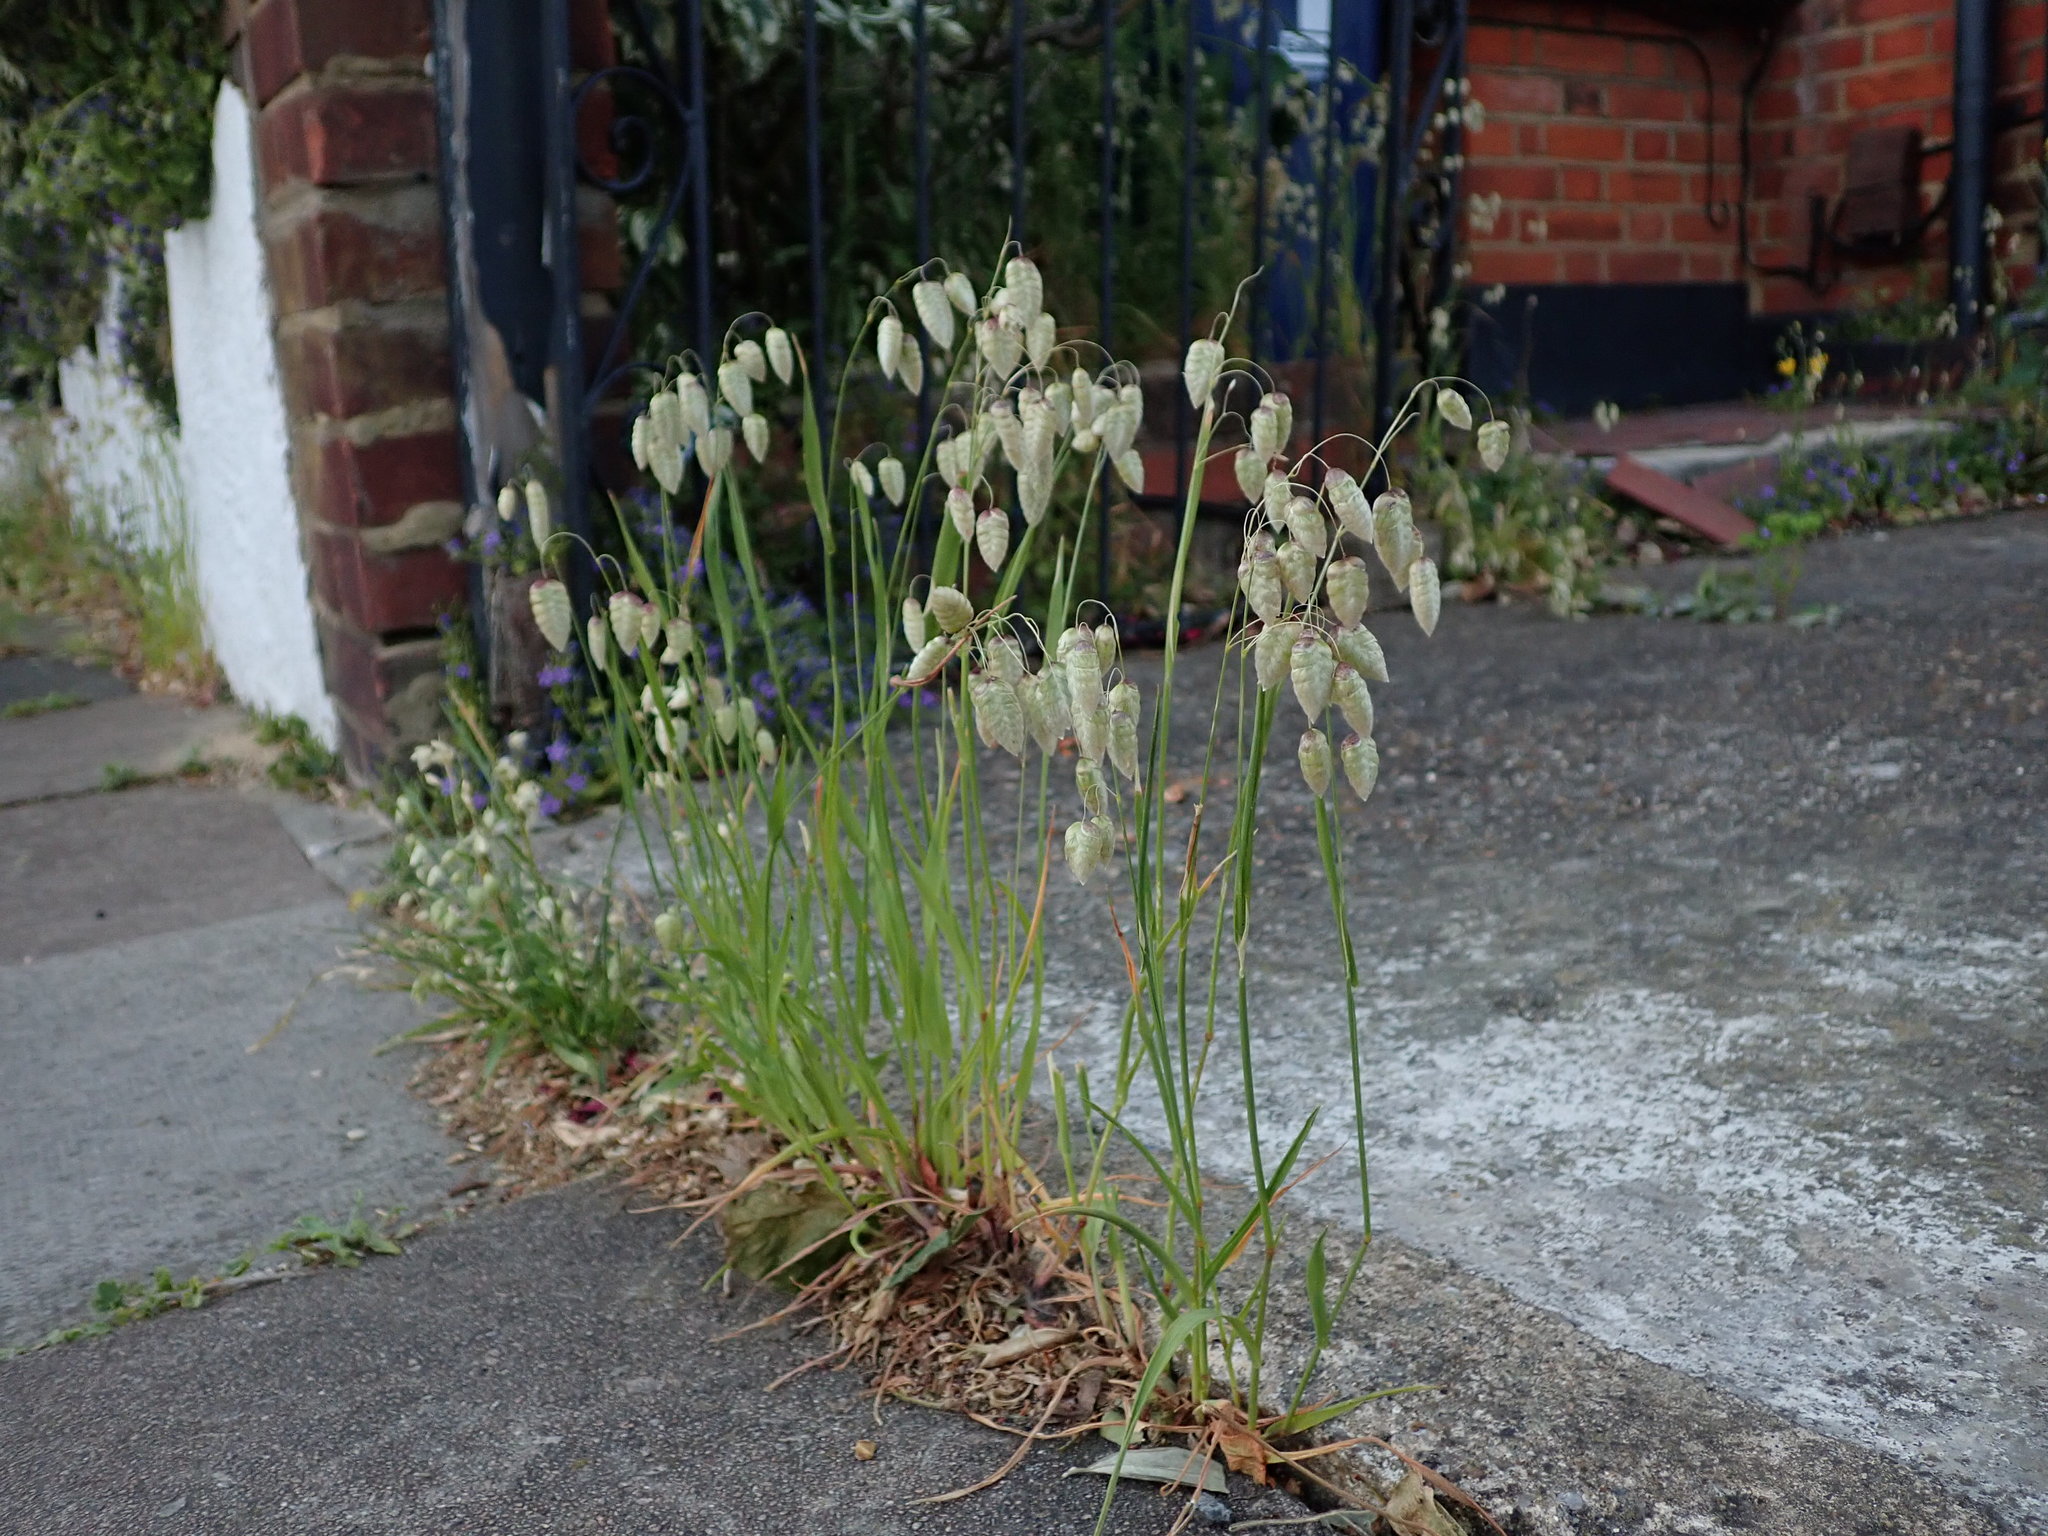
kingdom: Plantae
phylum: Tracheophyta
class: Liliopsida
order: Poales
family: Poaceae
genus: Briza
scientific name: Briza maxima
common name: Big quakinggrass
